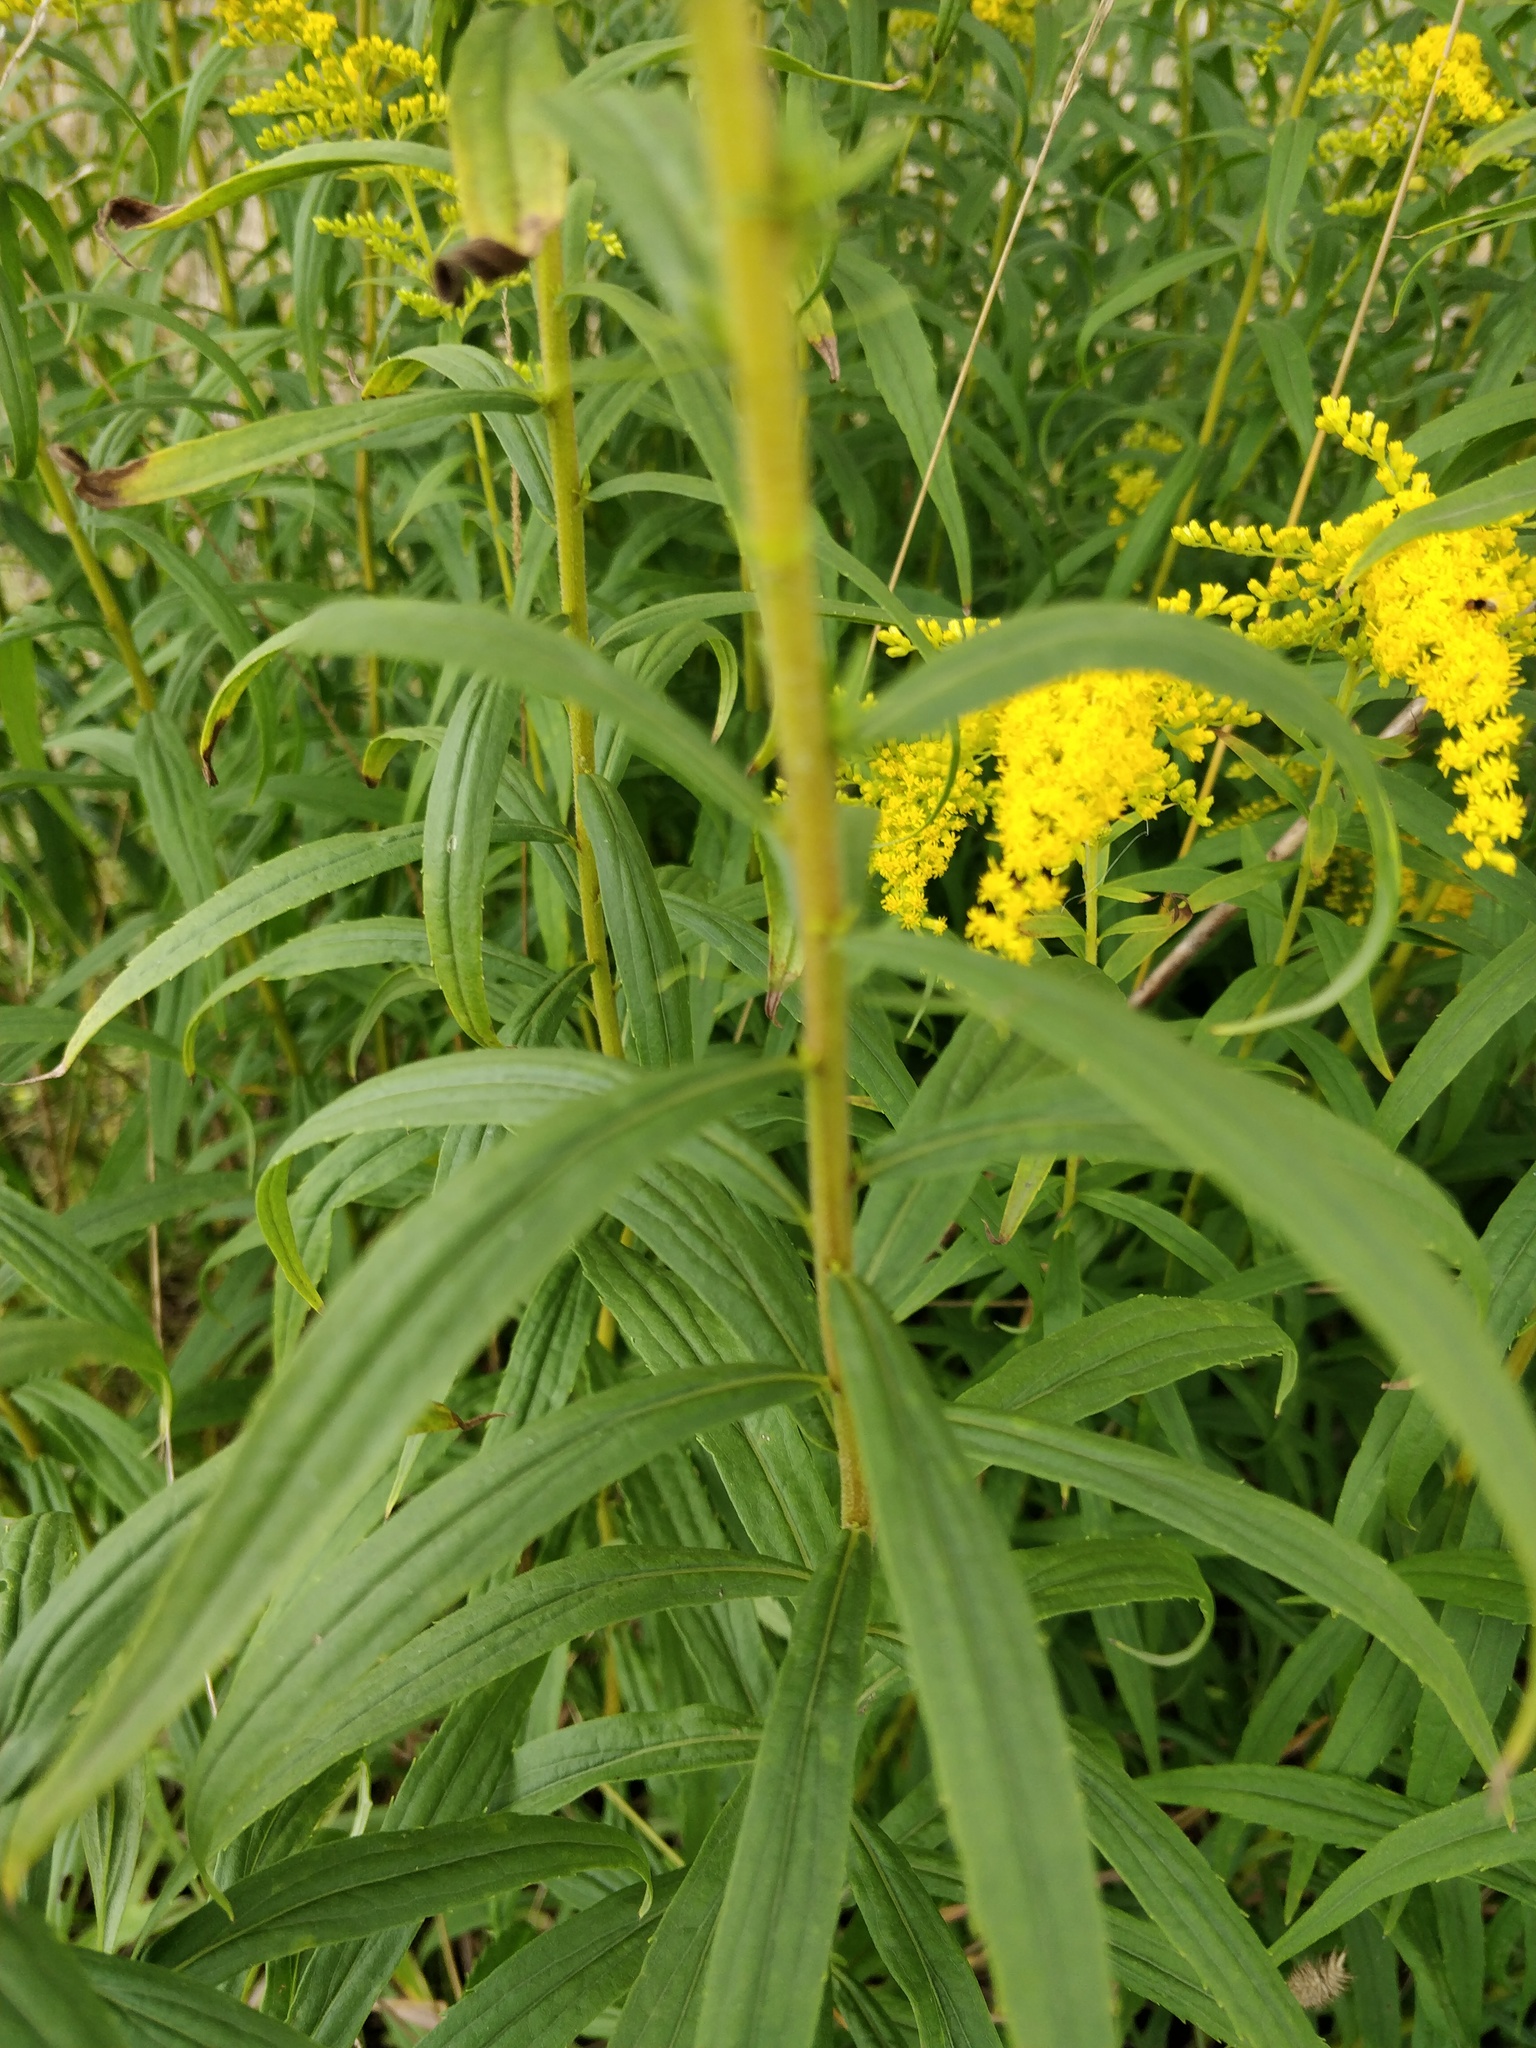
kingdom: Plantae
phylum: Tracheophyta
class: Magnoliopsida
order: Asterales
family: Asteraceae
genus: Solidago
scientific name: Solidago canadensis
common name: Canada goldenrod
